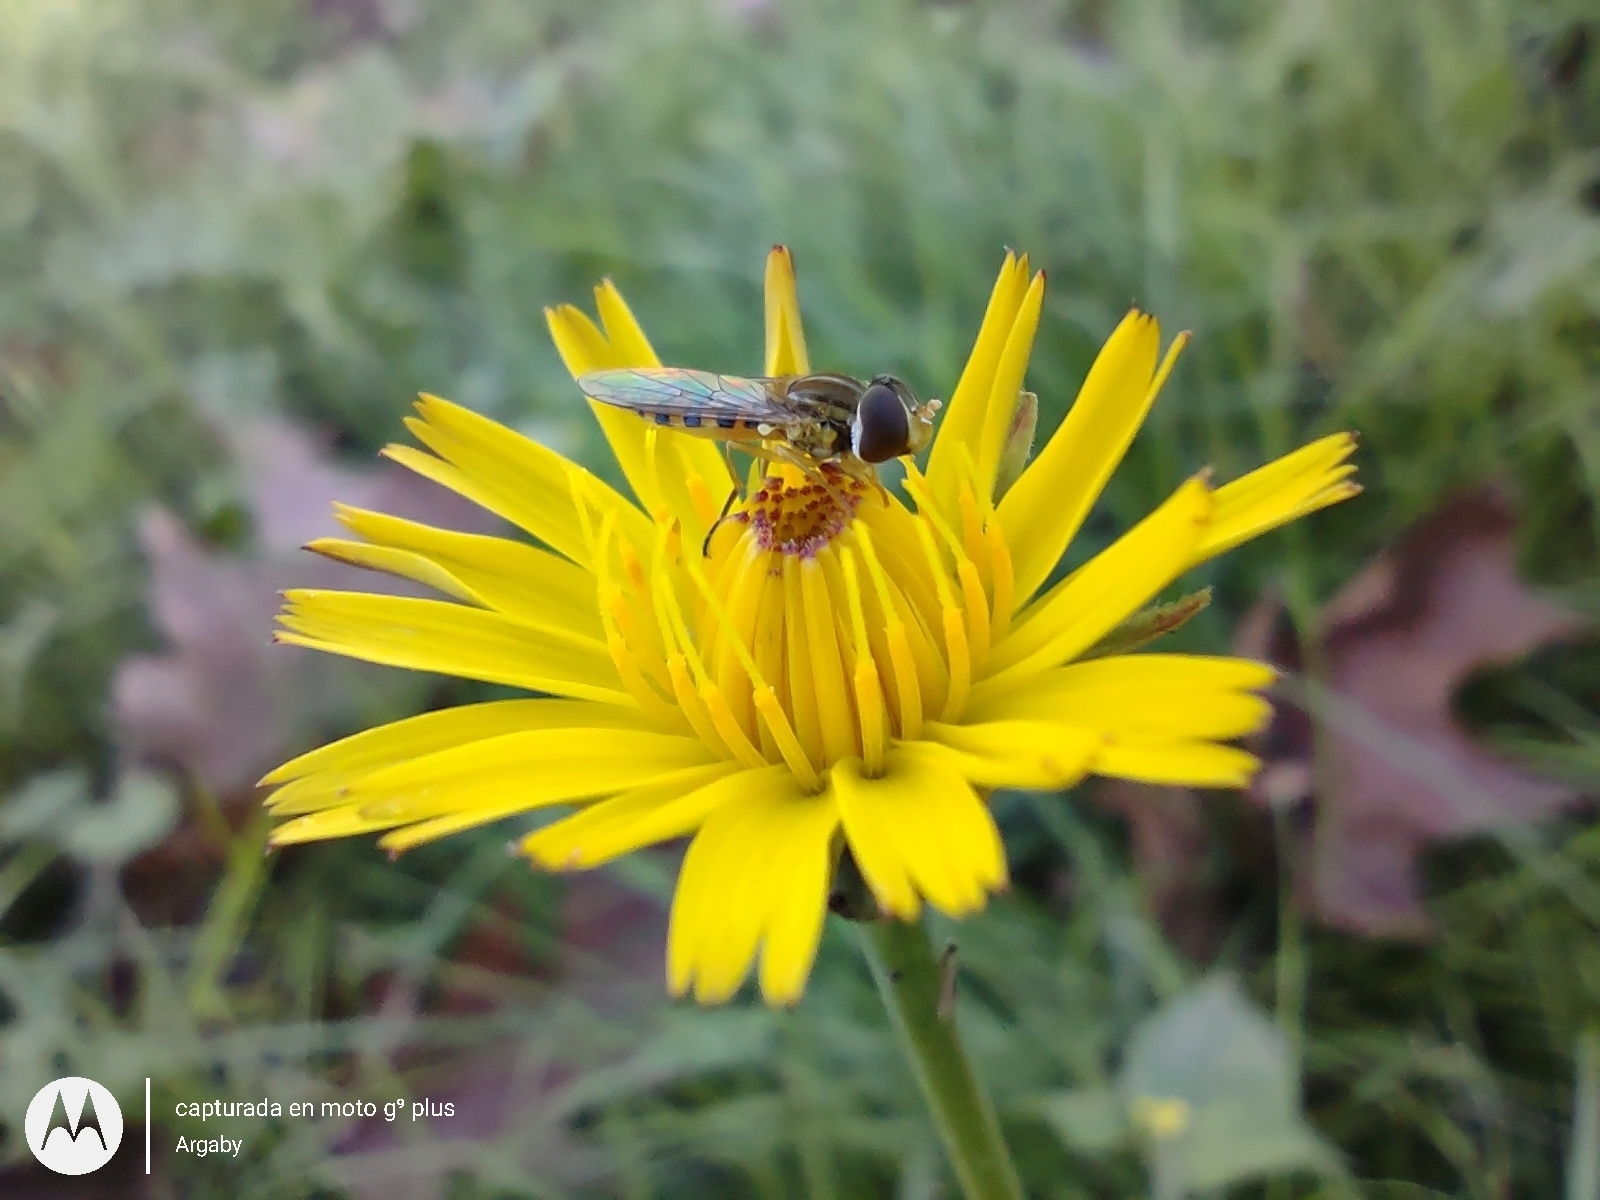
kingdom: Animalia
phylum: Arthropoda
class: Insecta
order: Diptera
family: Syrphidae
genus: Toxomerus
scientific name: Toxomerus
